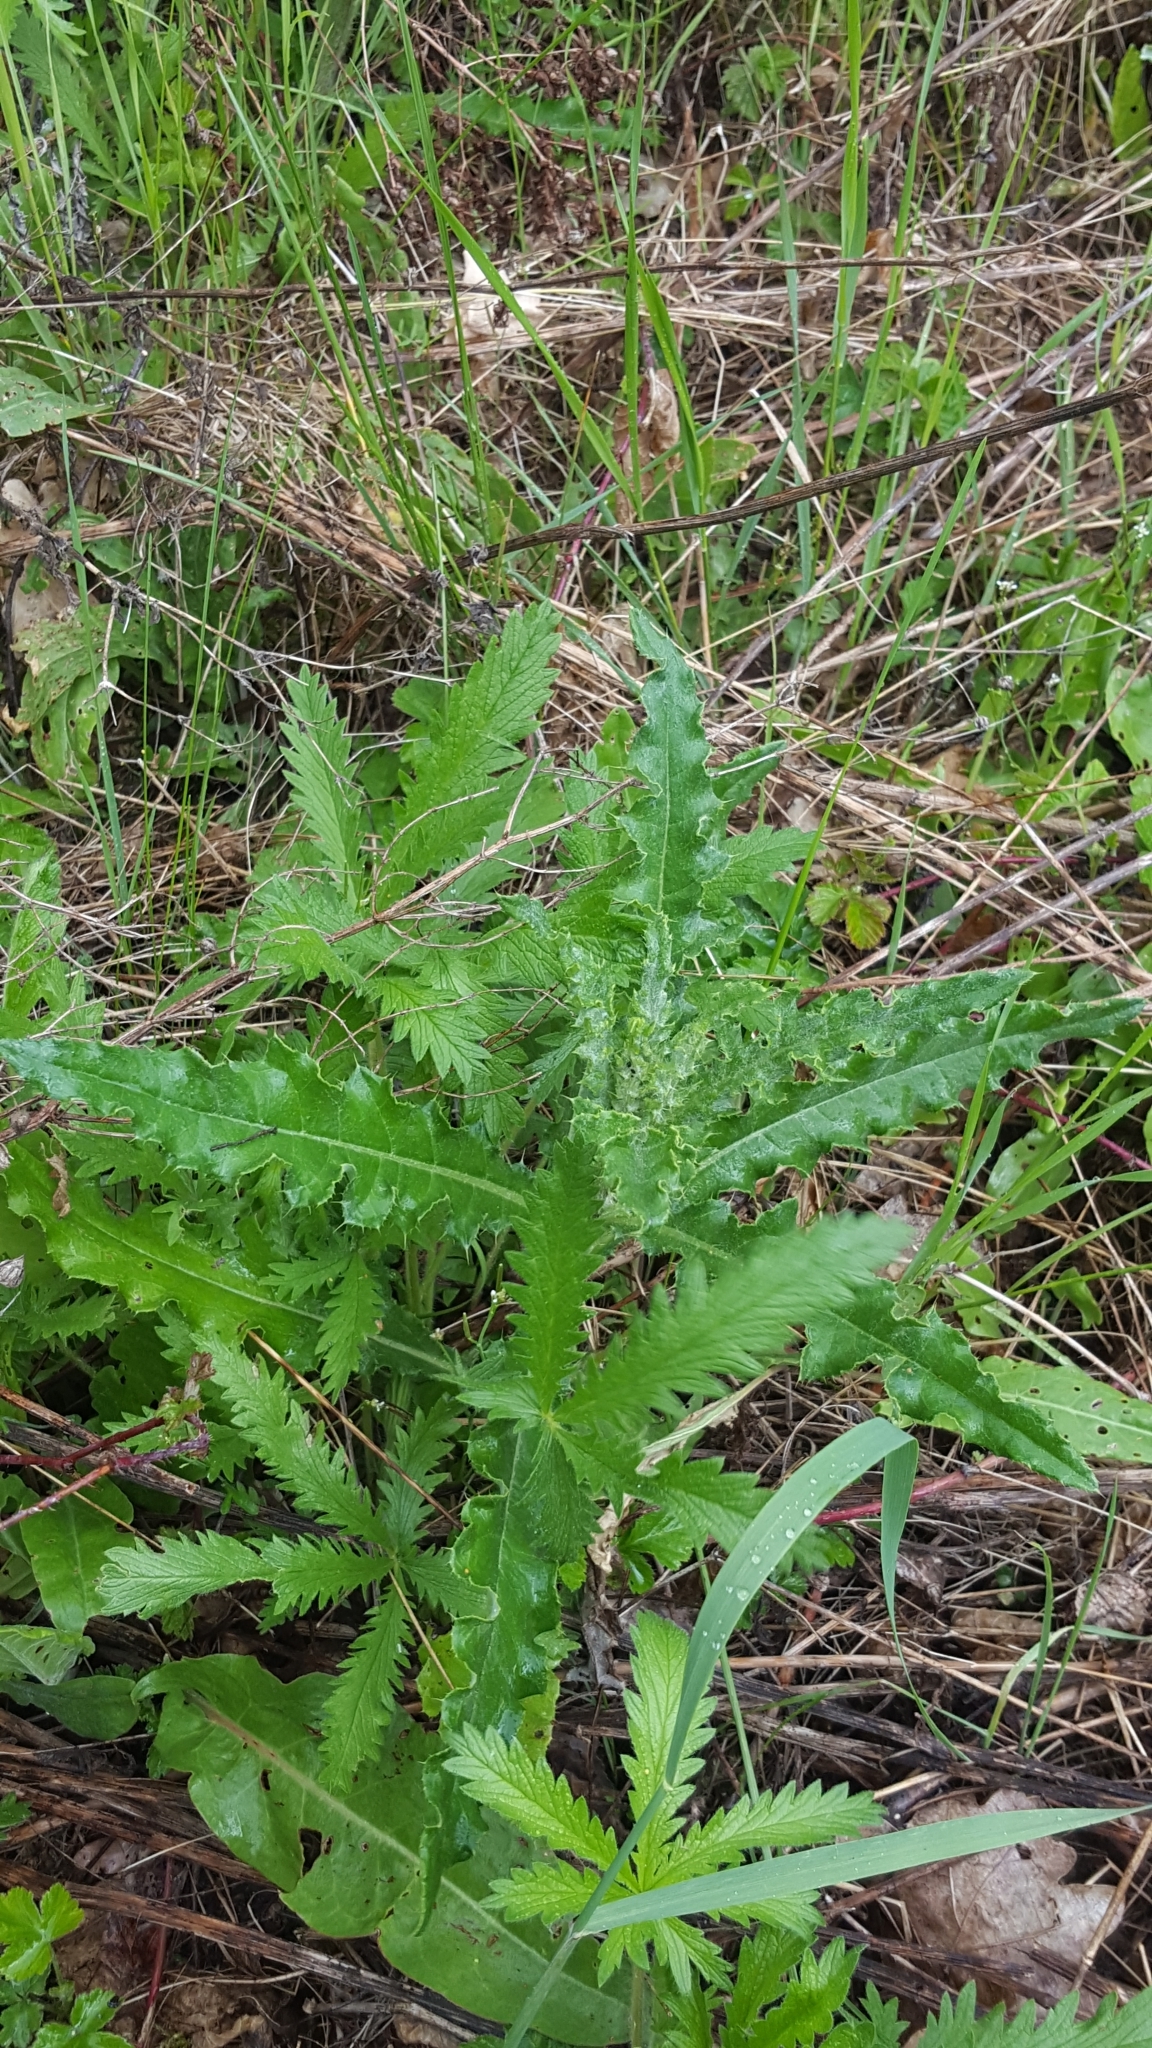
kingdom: Plantae
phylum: Tracheophyta
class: Magnoliopsida
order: Asterales
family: Asteraceae
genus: Cirsium
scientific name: Cirsium arvense
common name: Creeping thistle
